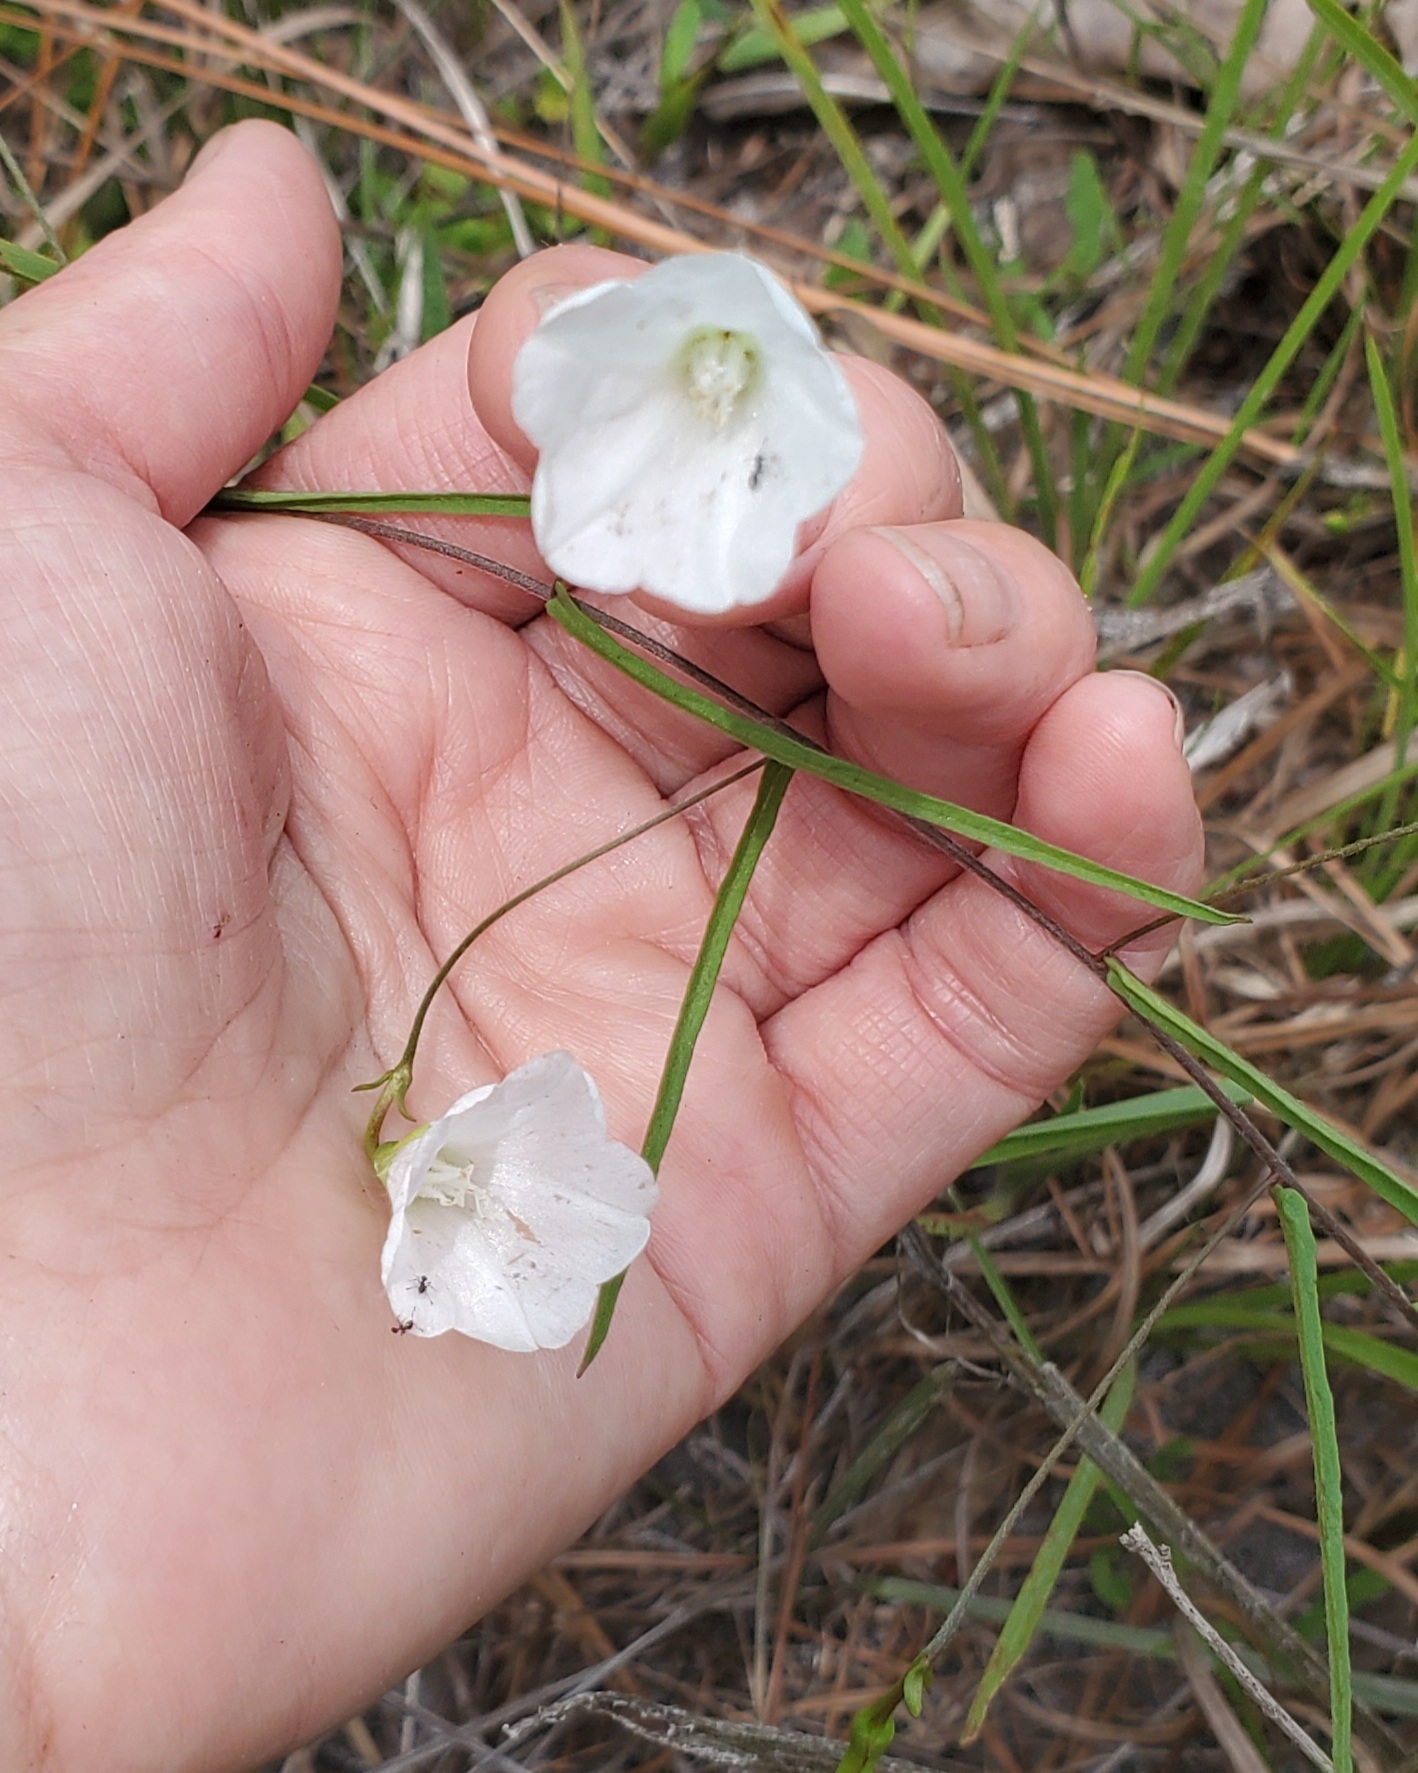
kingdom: Plantae
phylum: Tracheophyta
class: Magnoliopsida
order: Solanales
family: Convolvulaceae
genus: Stylisma
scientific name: Stylisma patens
